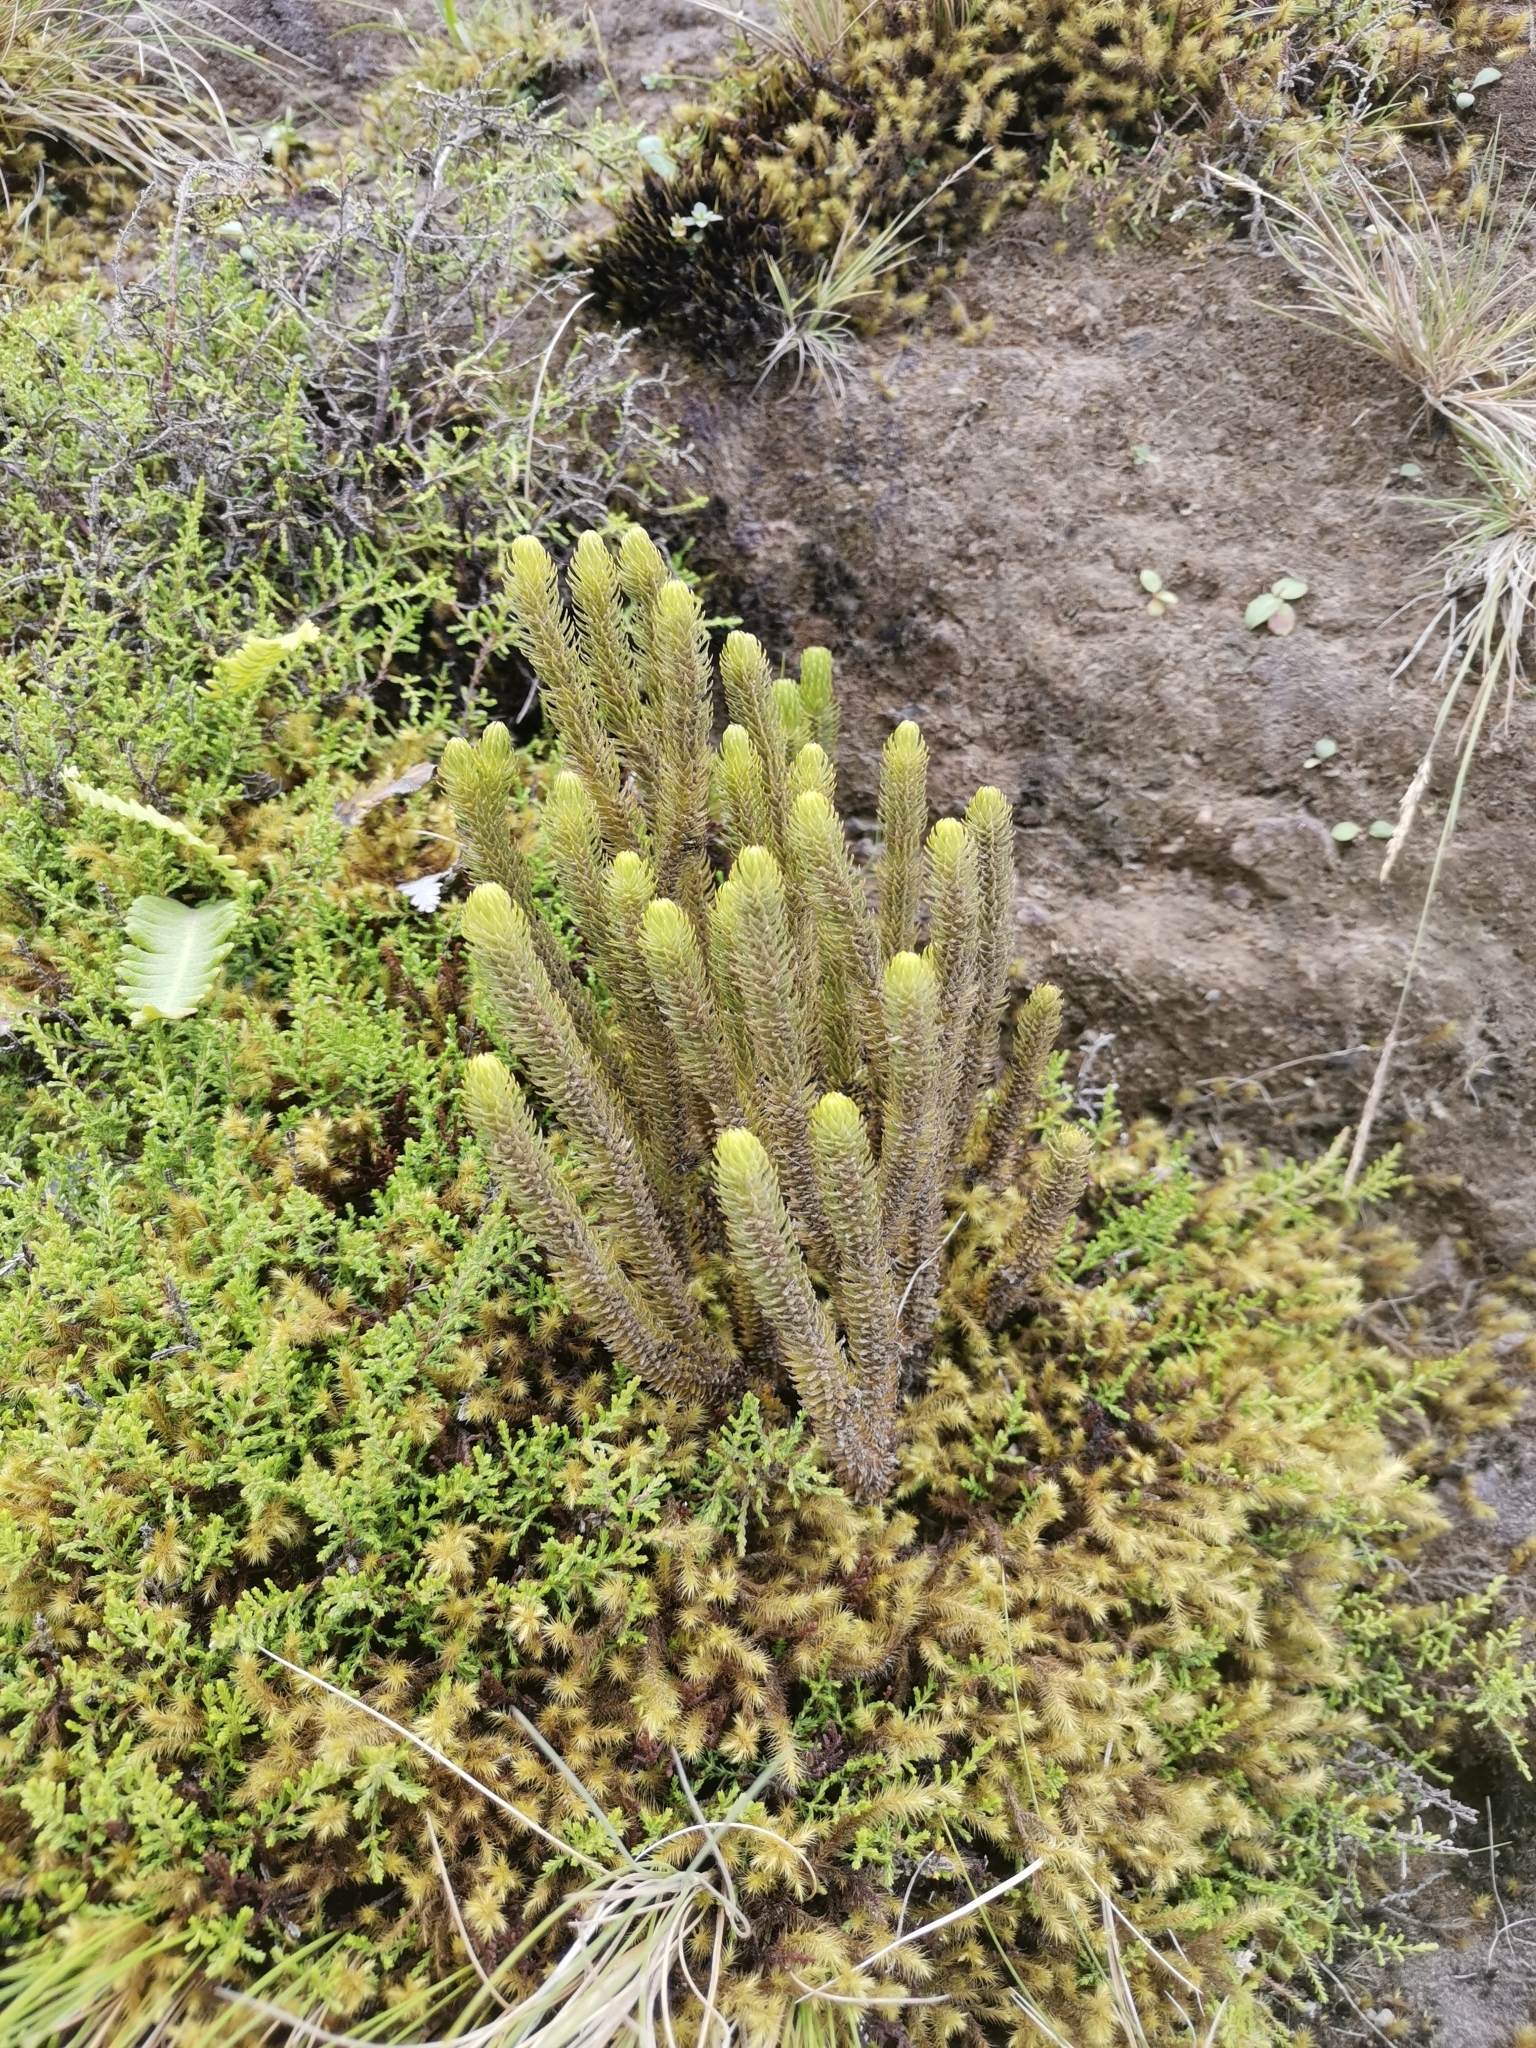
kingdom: Plantae
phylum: Tracheophyta
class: Lycopodiopsida
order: Lycopodiales
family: Lycopodiaceae
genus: Phlegmariurus
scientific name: Phlegmariurus dentatus
